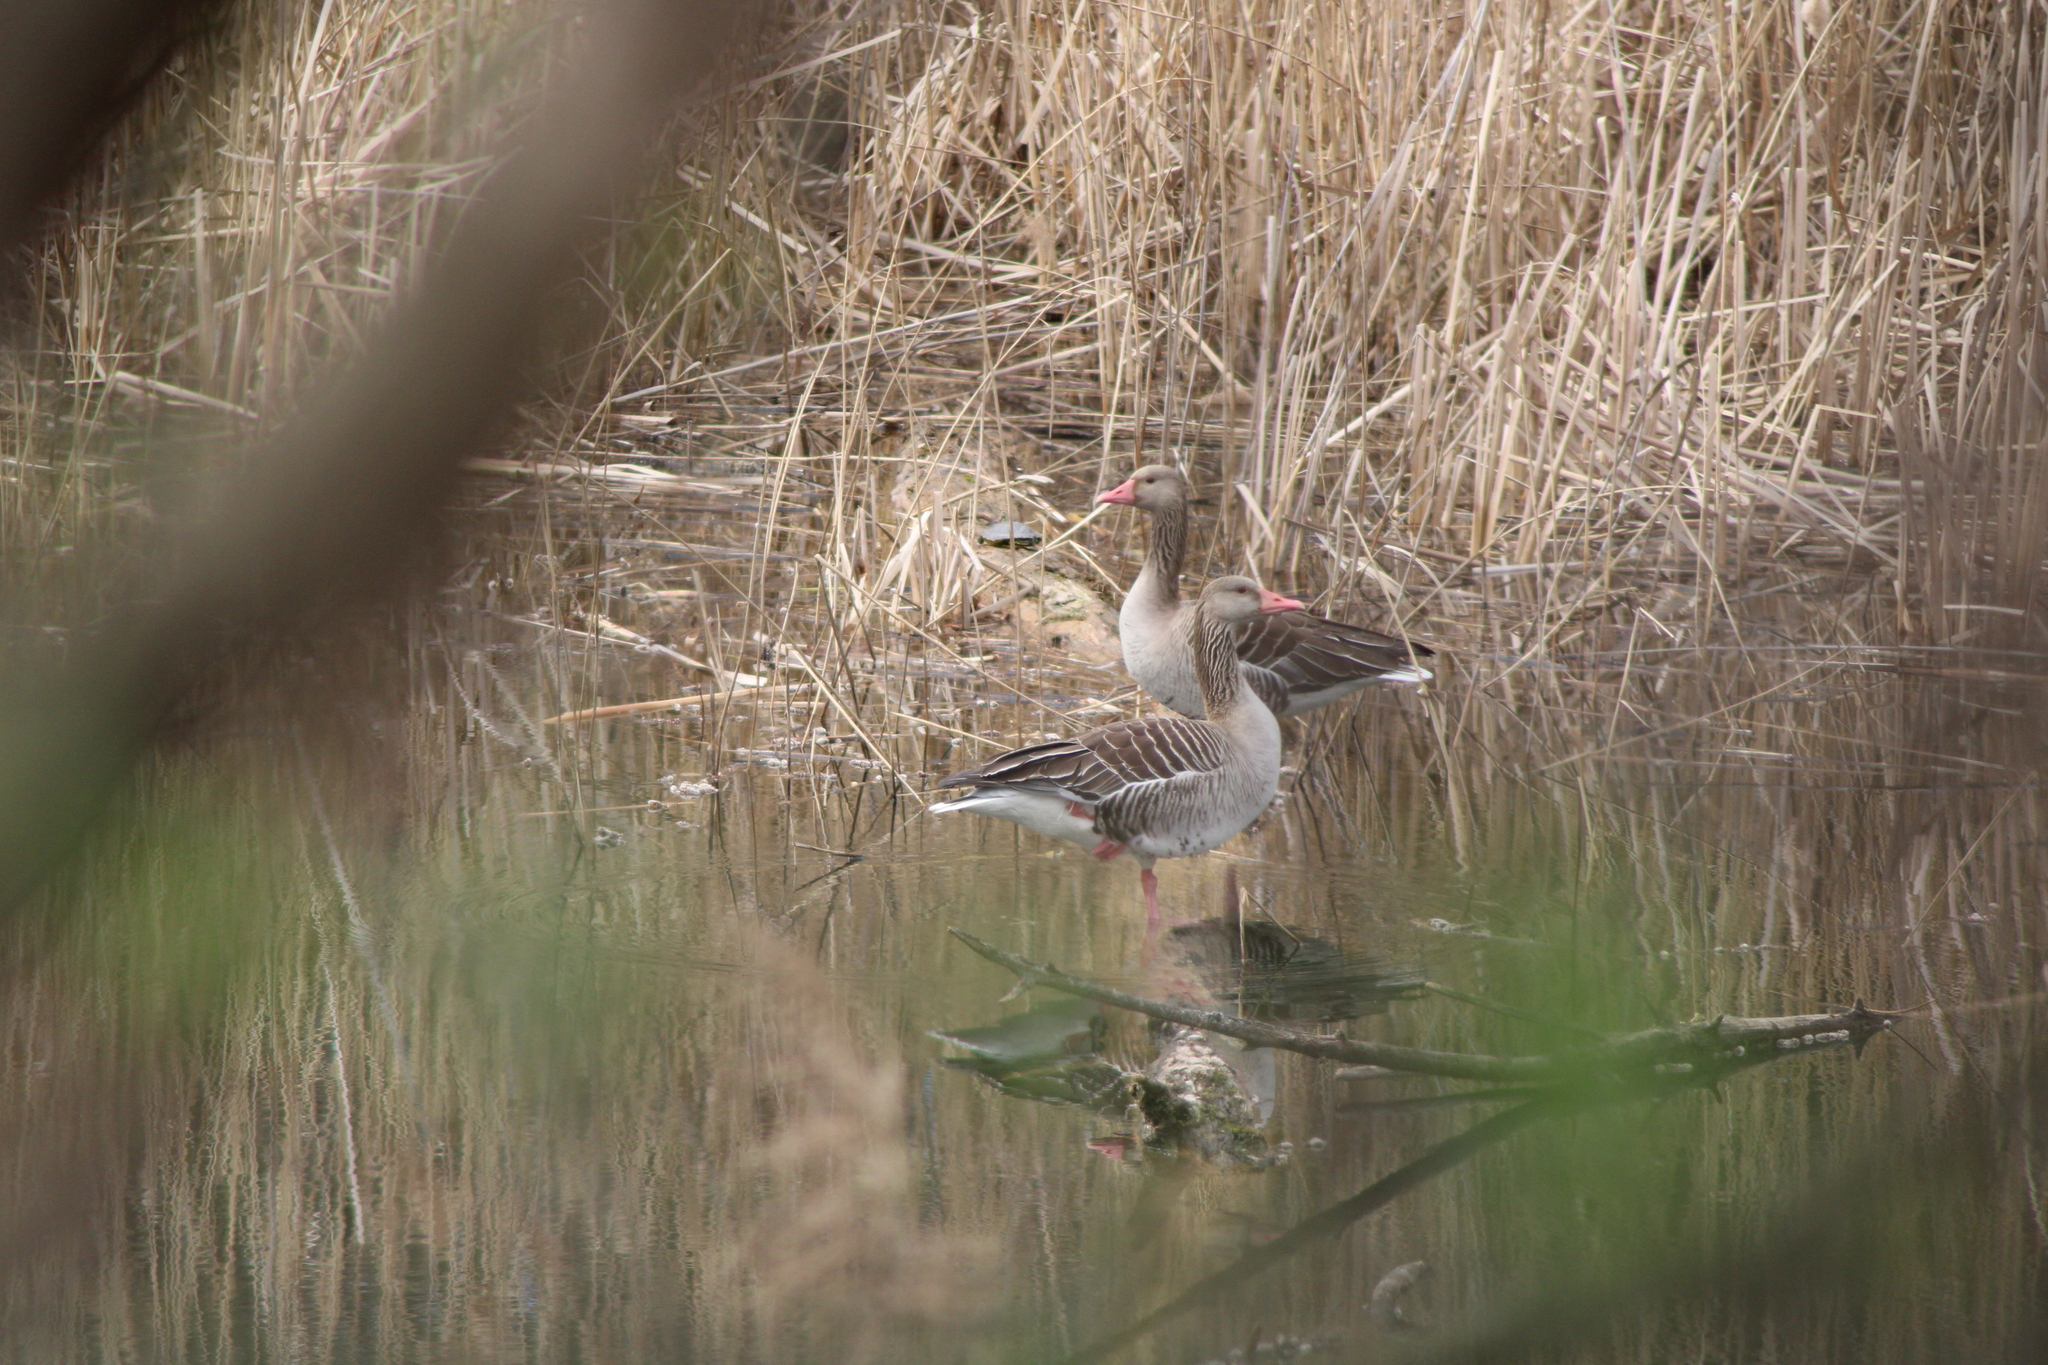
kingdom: Animalia
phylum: Chordata
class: Aves
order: Anseriformes
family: Anatidae
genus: Anser
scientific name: Anser anser
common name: Greylag goose
